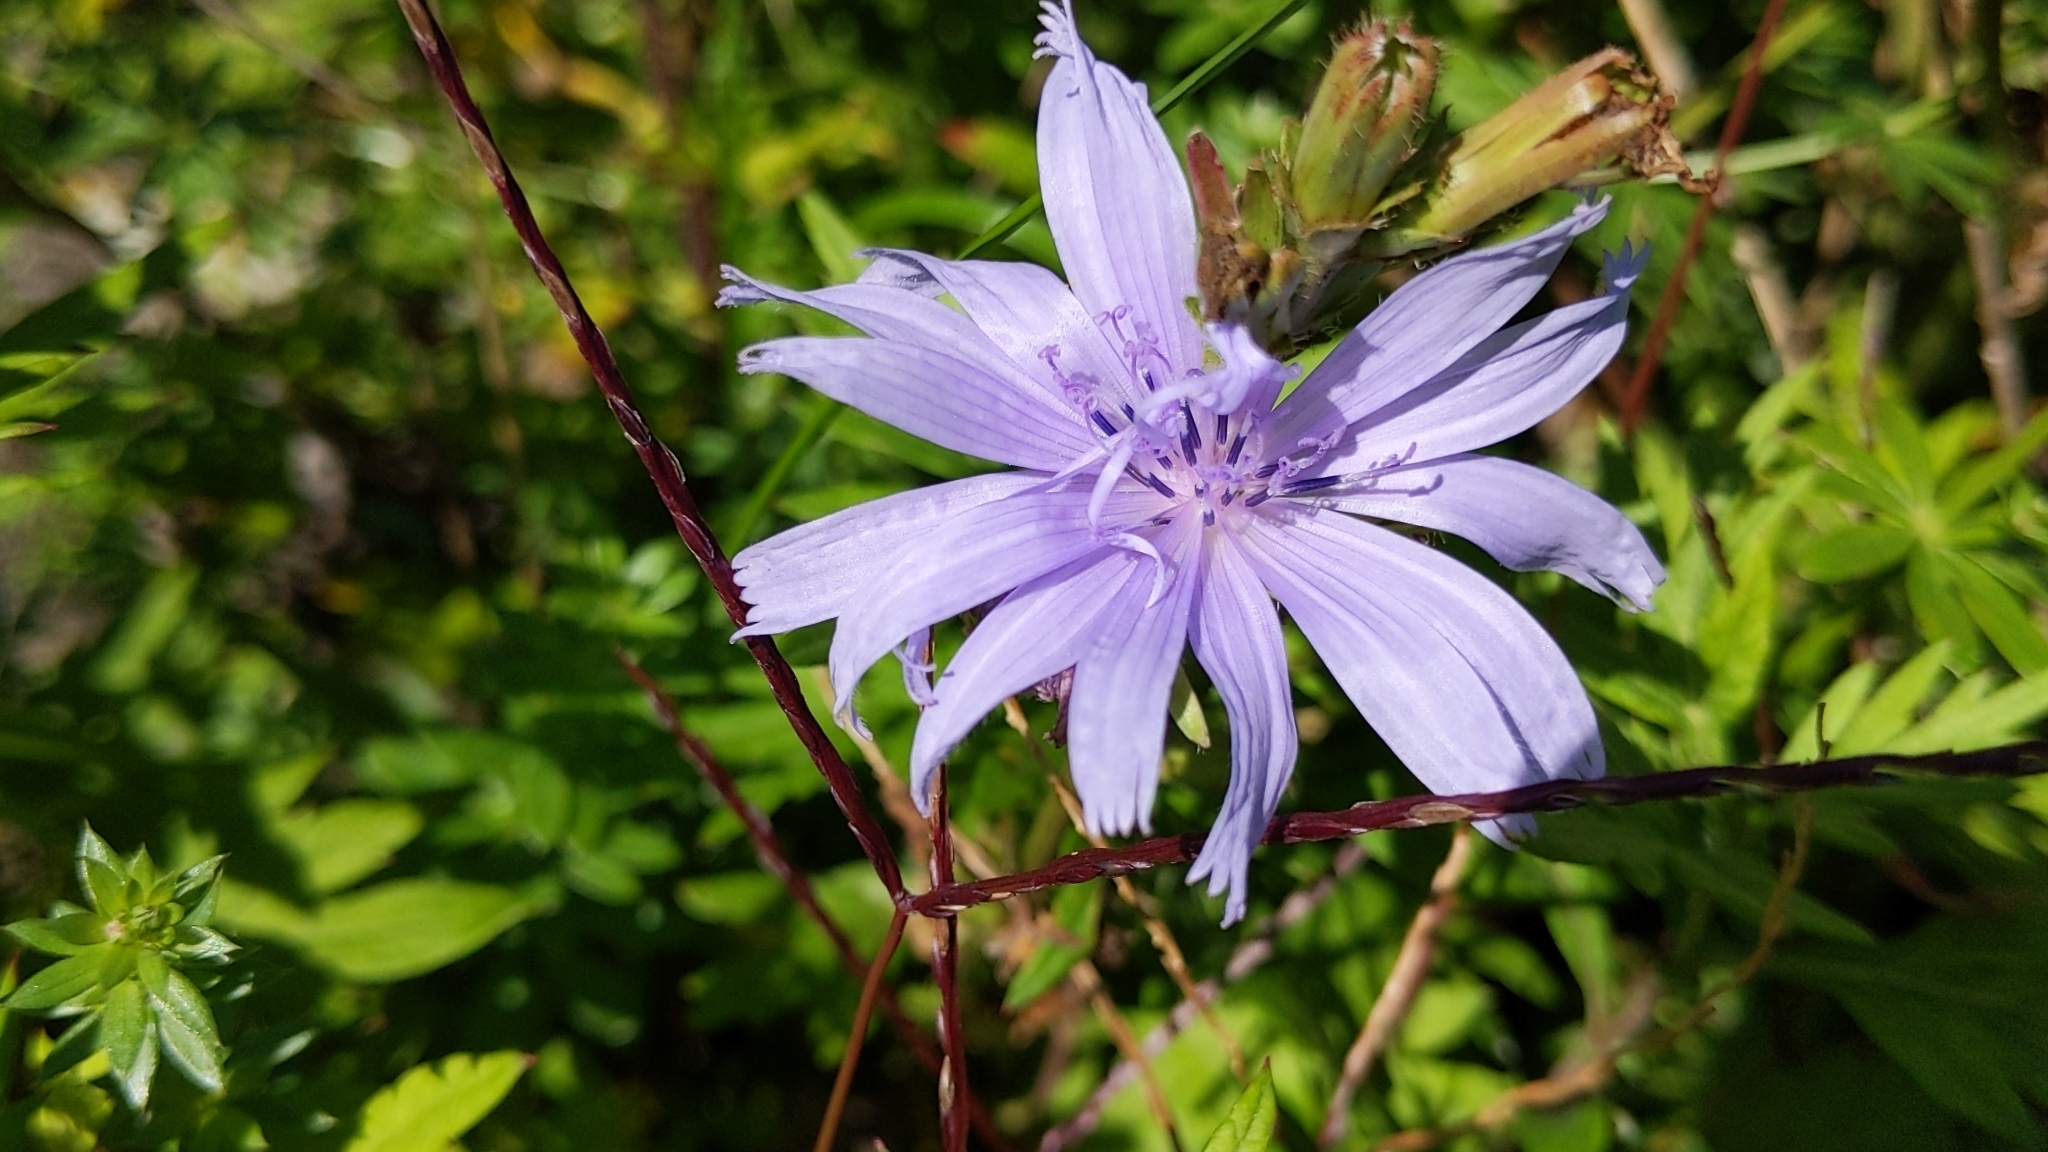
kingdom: Plantae
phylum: Tracheophyta
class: Magnoliopsida
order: Asterales
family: Asteraceae
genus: Cichorium
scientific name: Cichorium intybus
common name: Chicory
